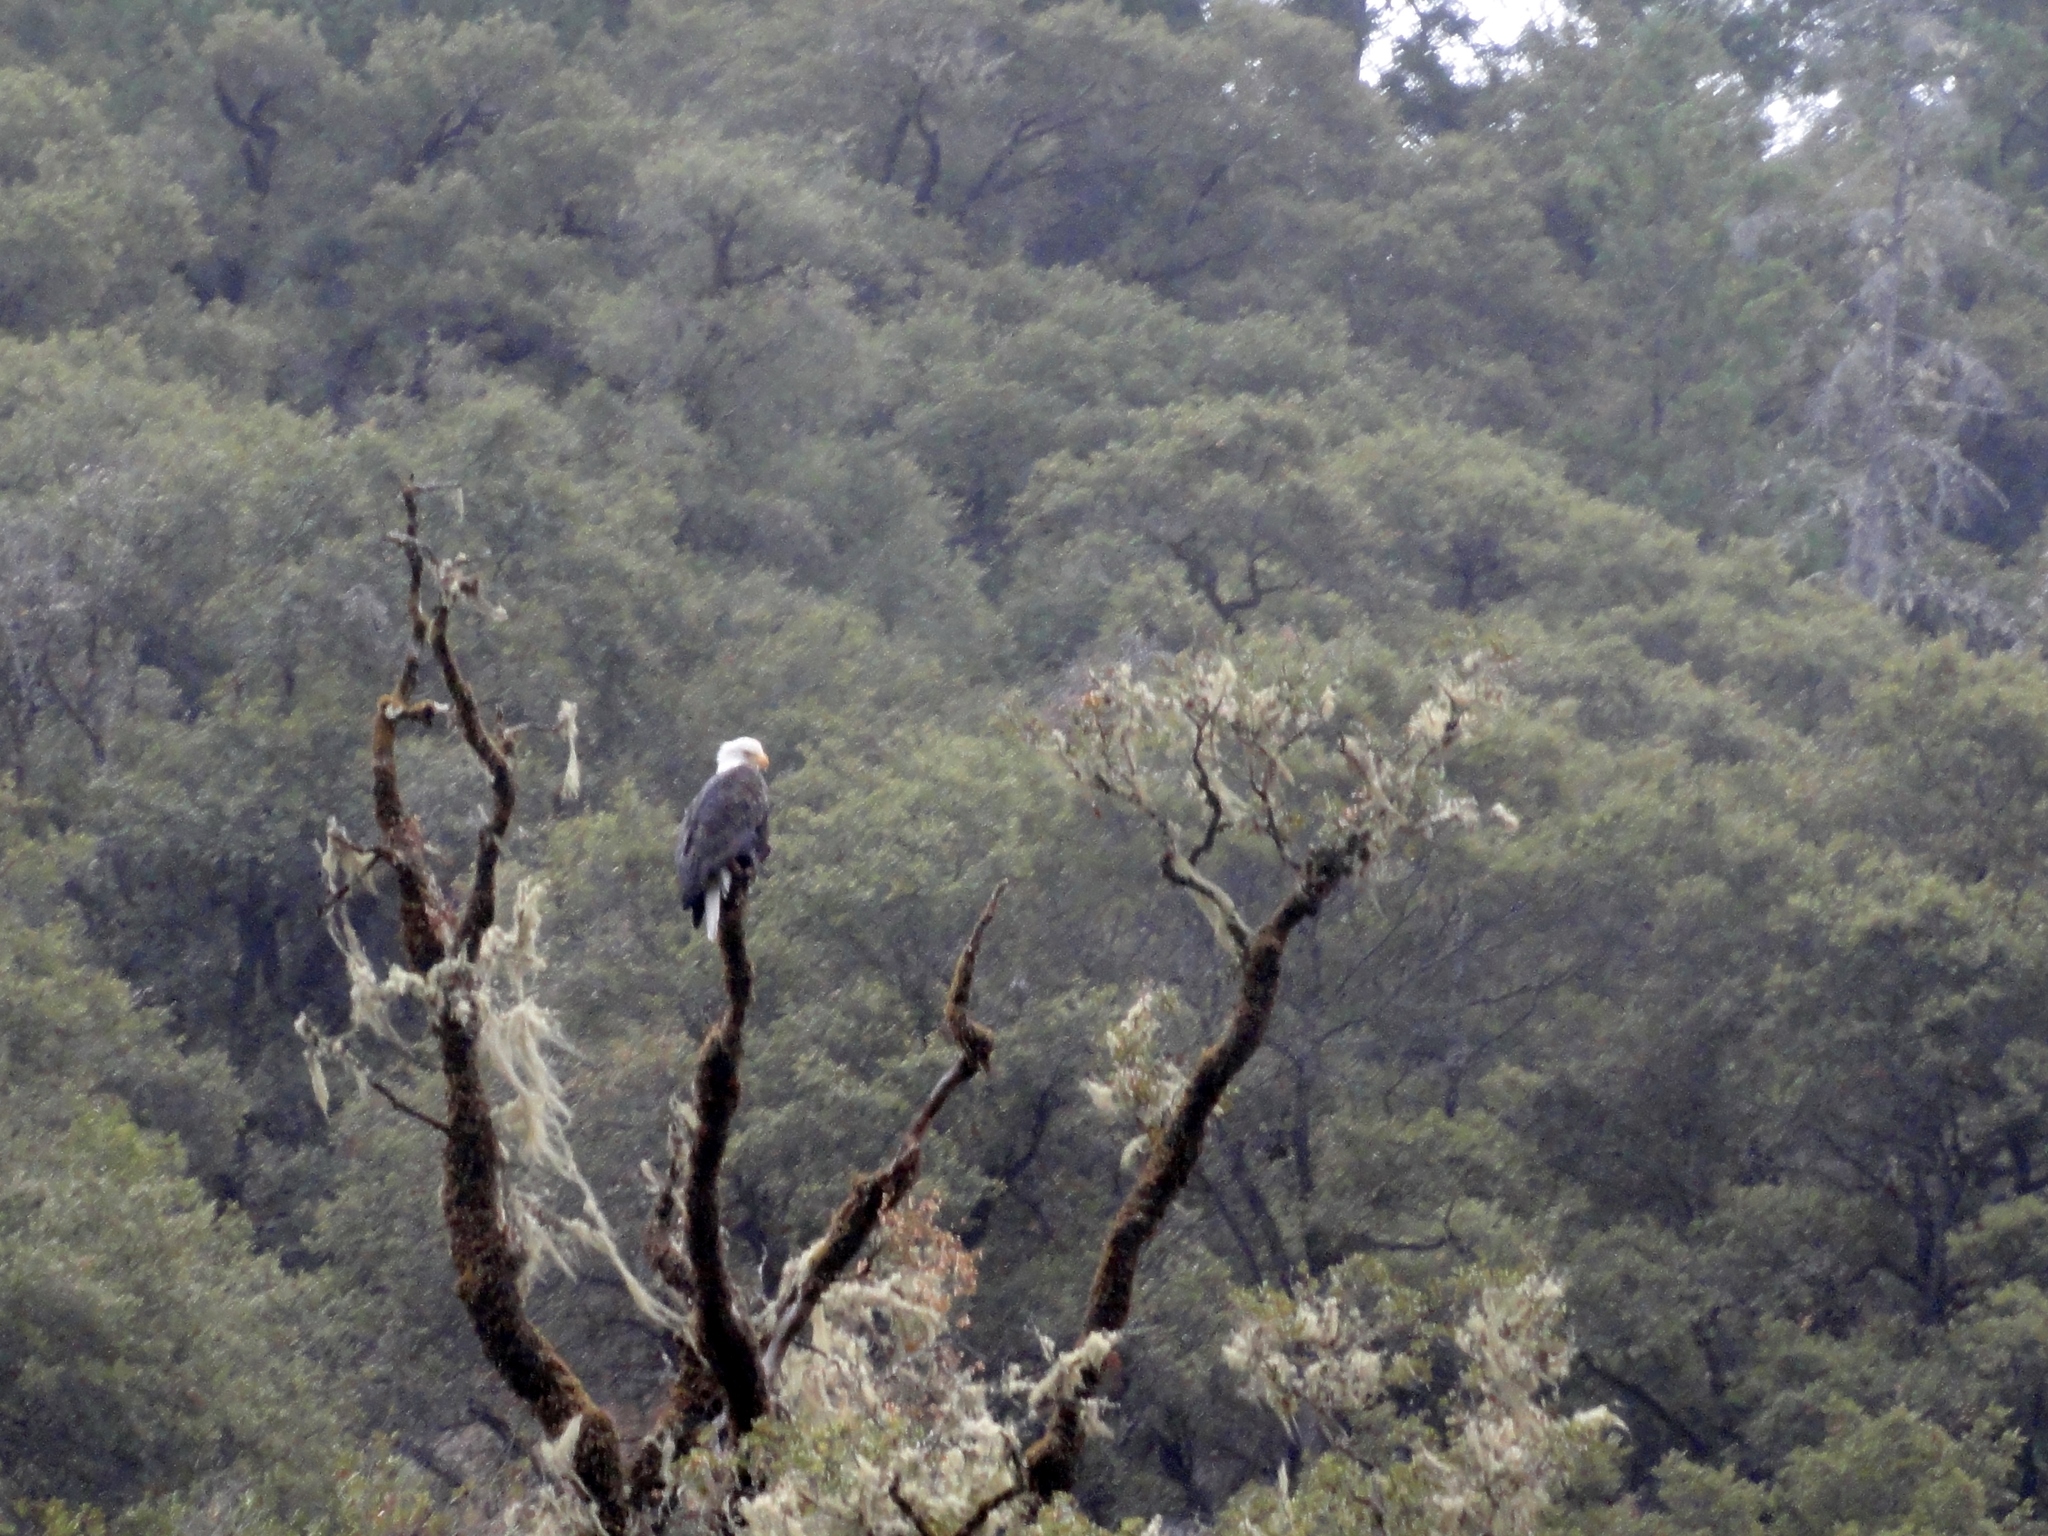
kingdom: Animalia
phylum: Chordata
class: Aves
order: Accipitriformes
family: Accipitridae
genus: Haliaeetus
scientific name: Haliaeetus leucocephalus
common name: Bald eagle
